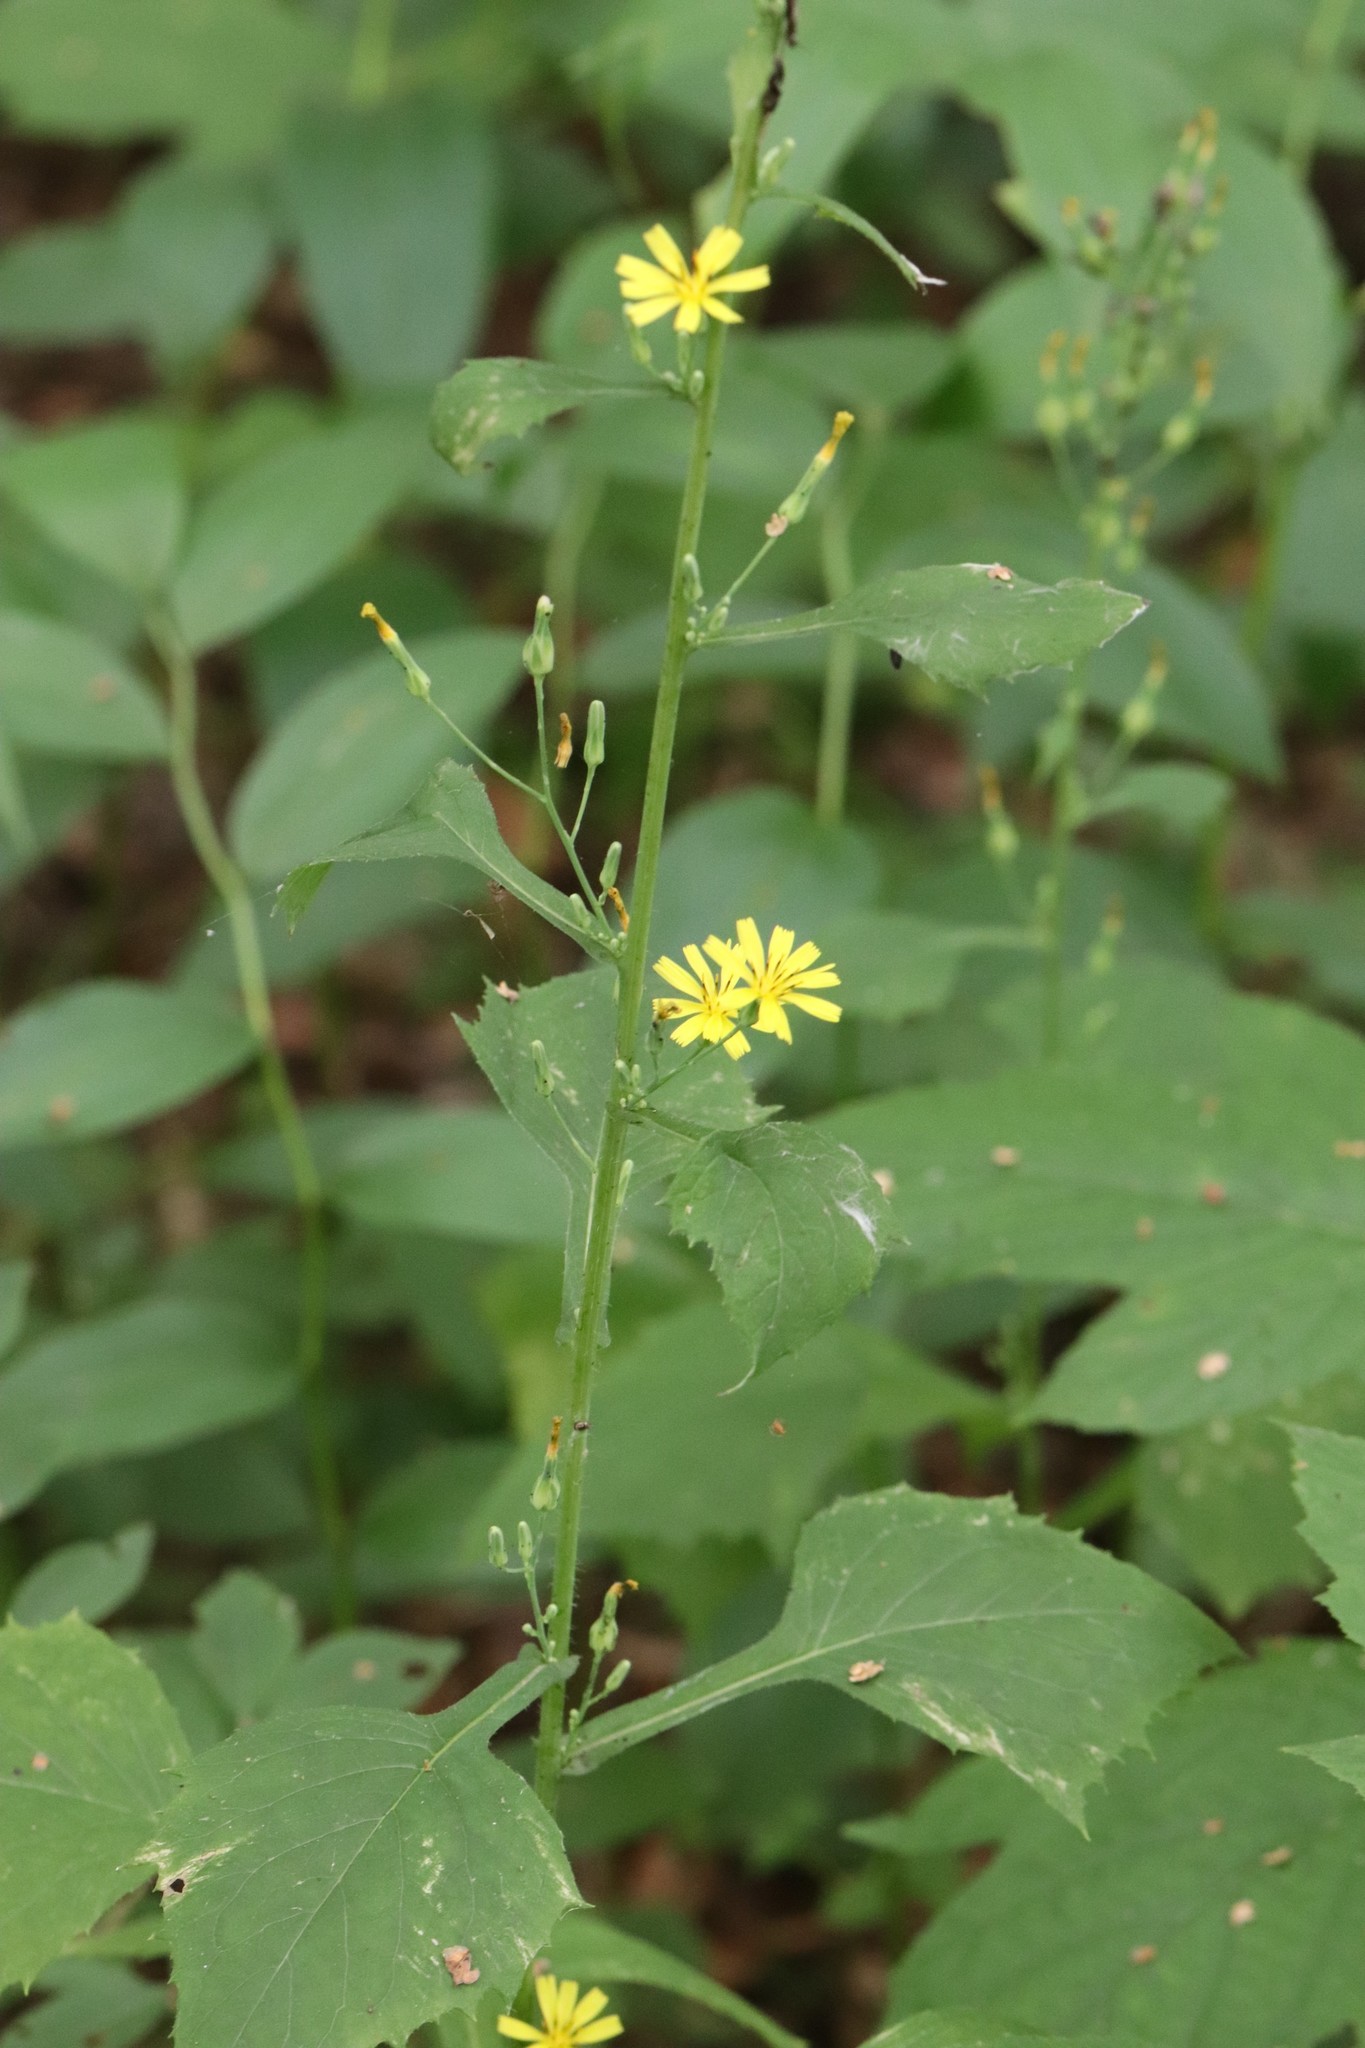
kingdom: Plantae
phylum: Tracheophyta
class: Magnoliopsida
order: Asterales
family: Asteraceae
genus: Lactuca
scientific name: Lactuca triangulata
